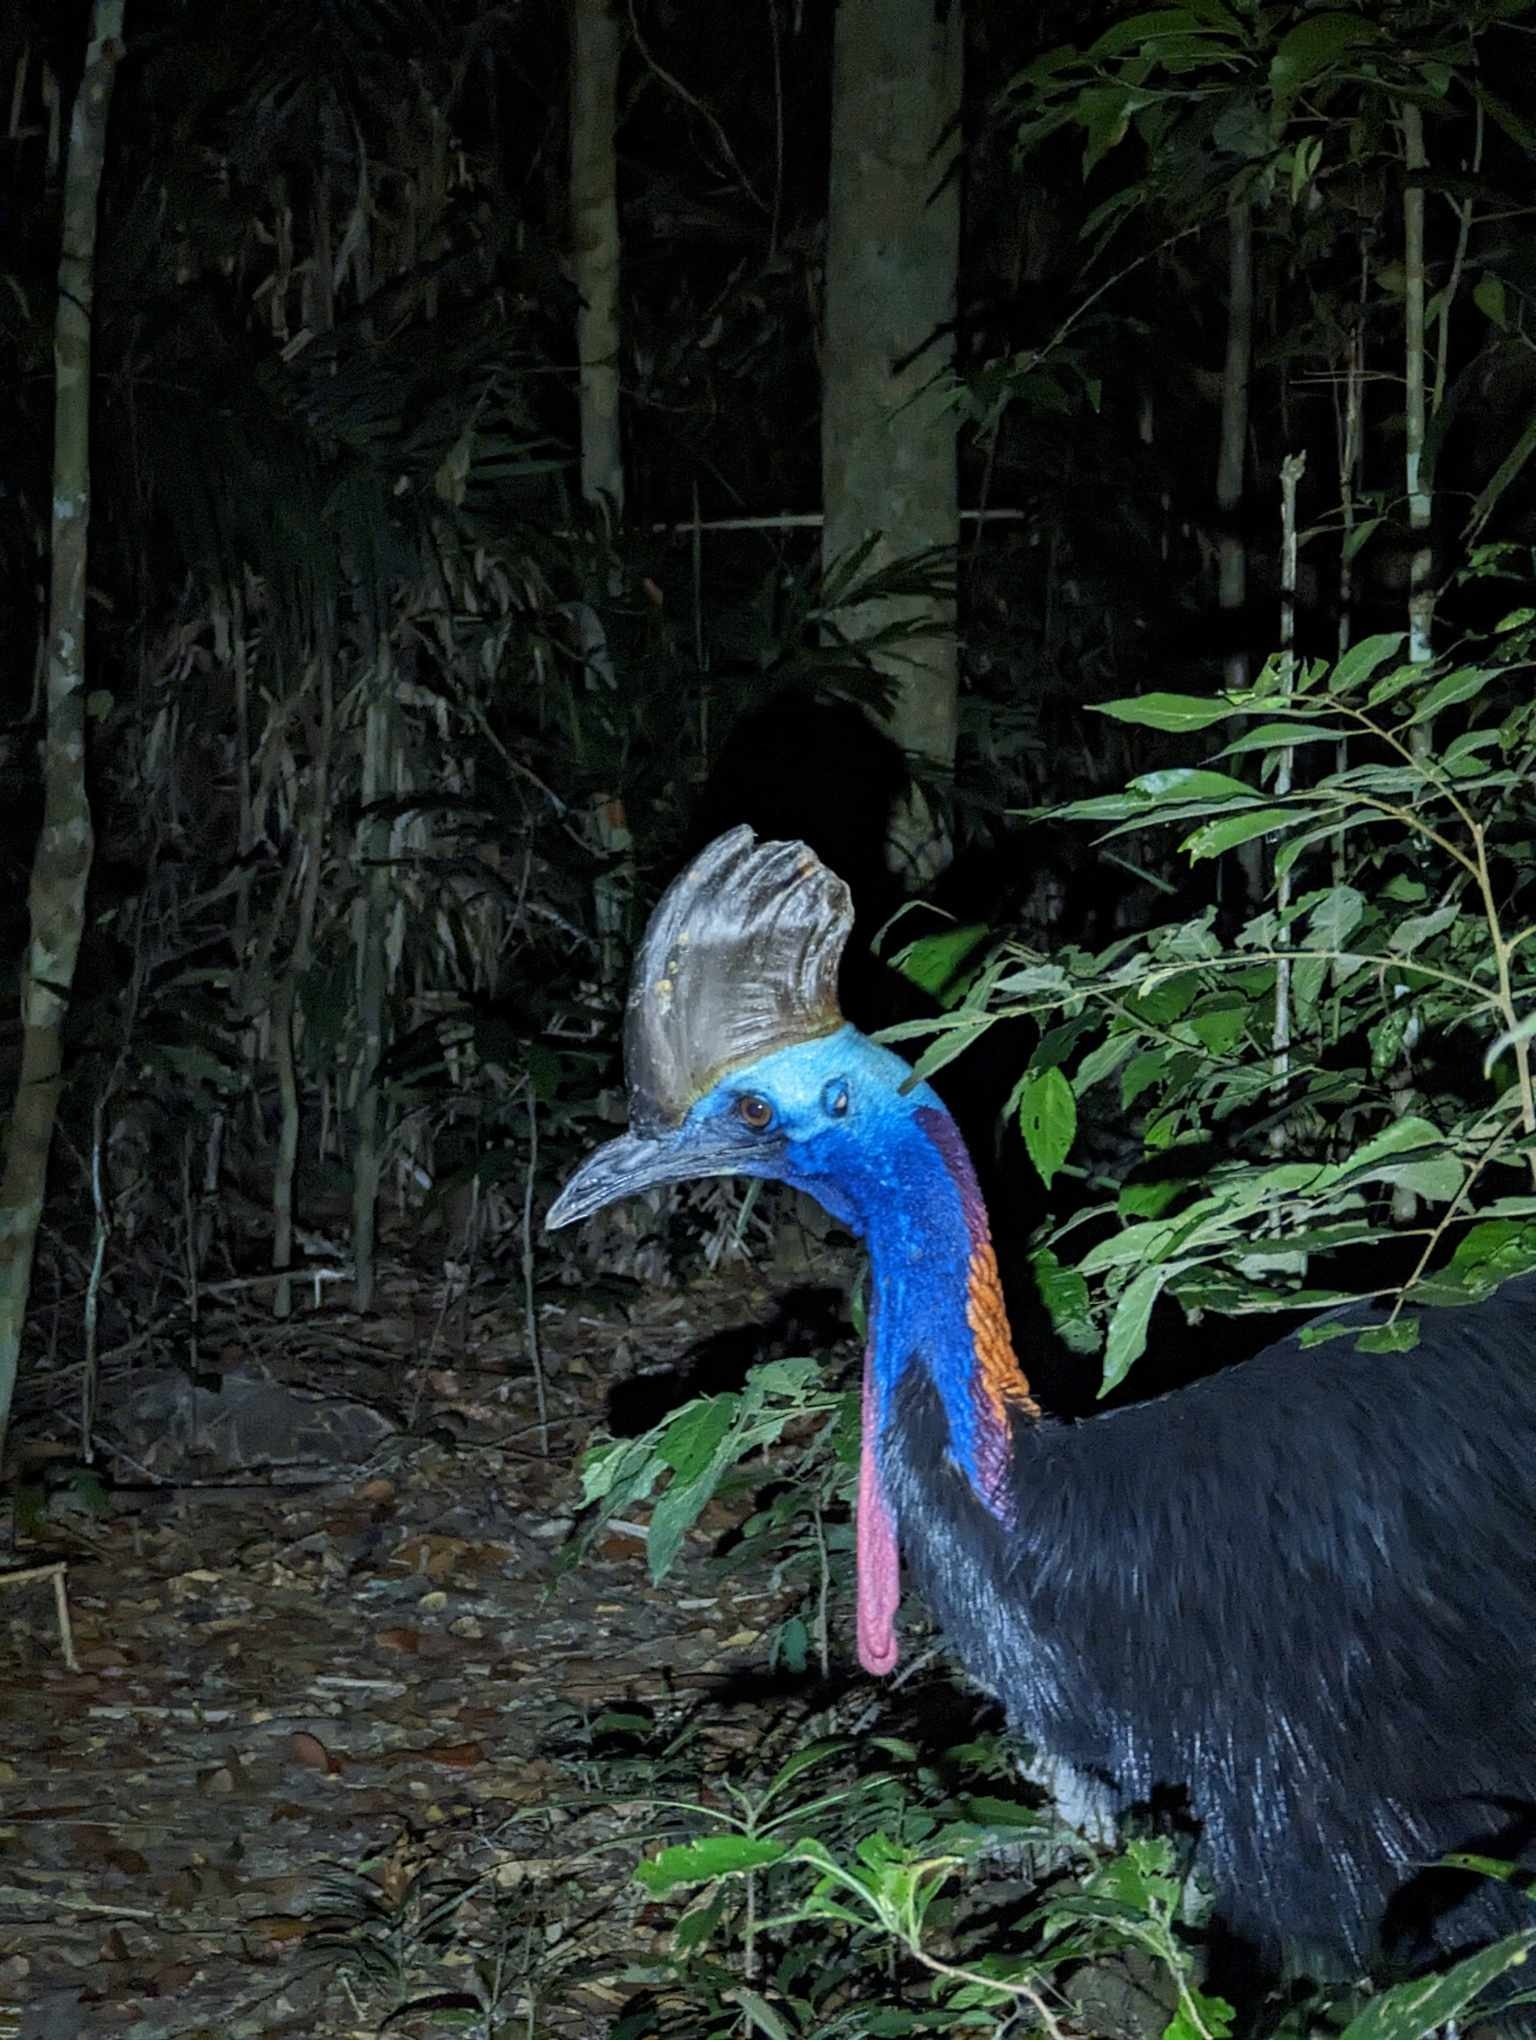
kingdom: Animalia
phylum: Chordata
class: Aves
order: Casuariiformes
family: Casuariidae
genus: Casuarius
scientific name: Casuarius casuarius
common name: Southern cassowary
